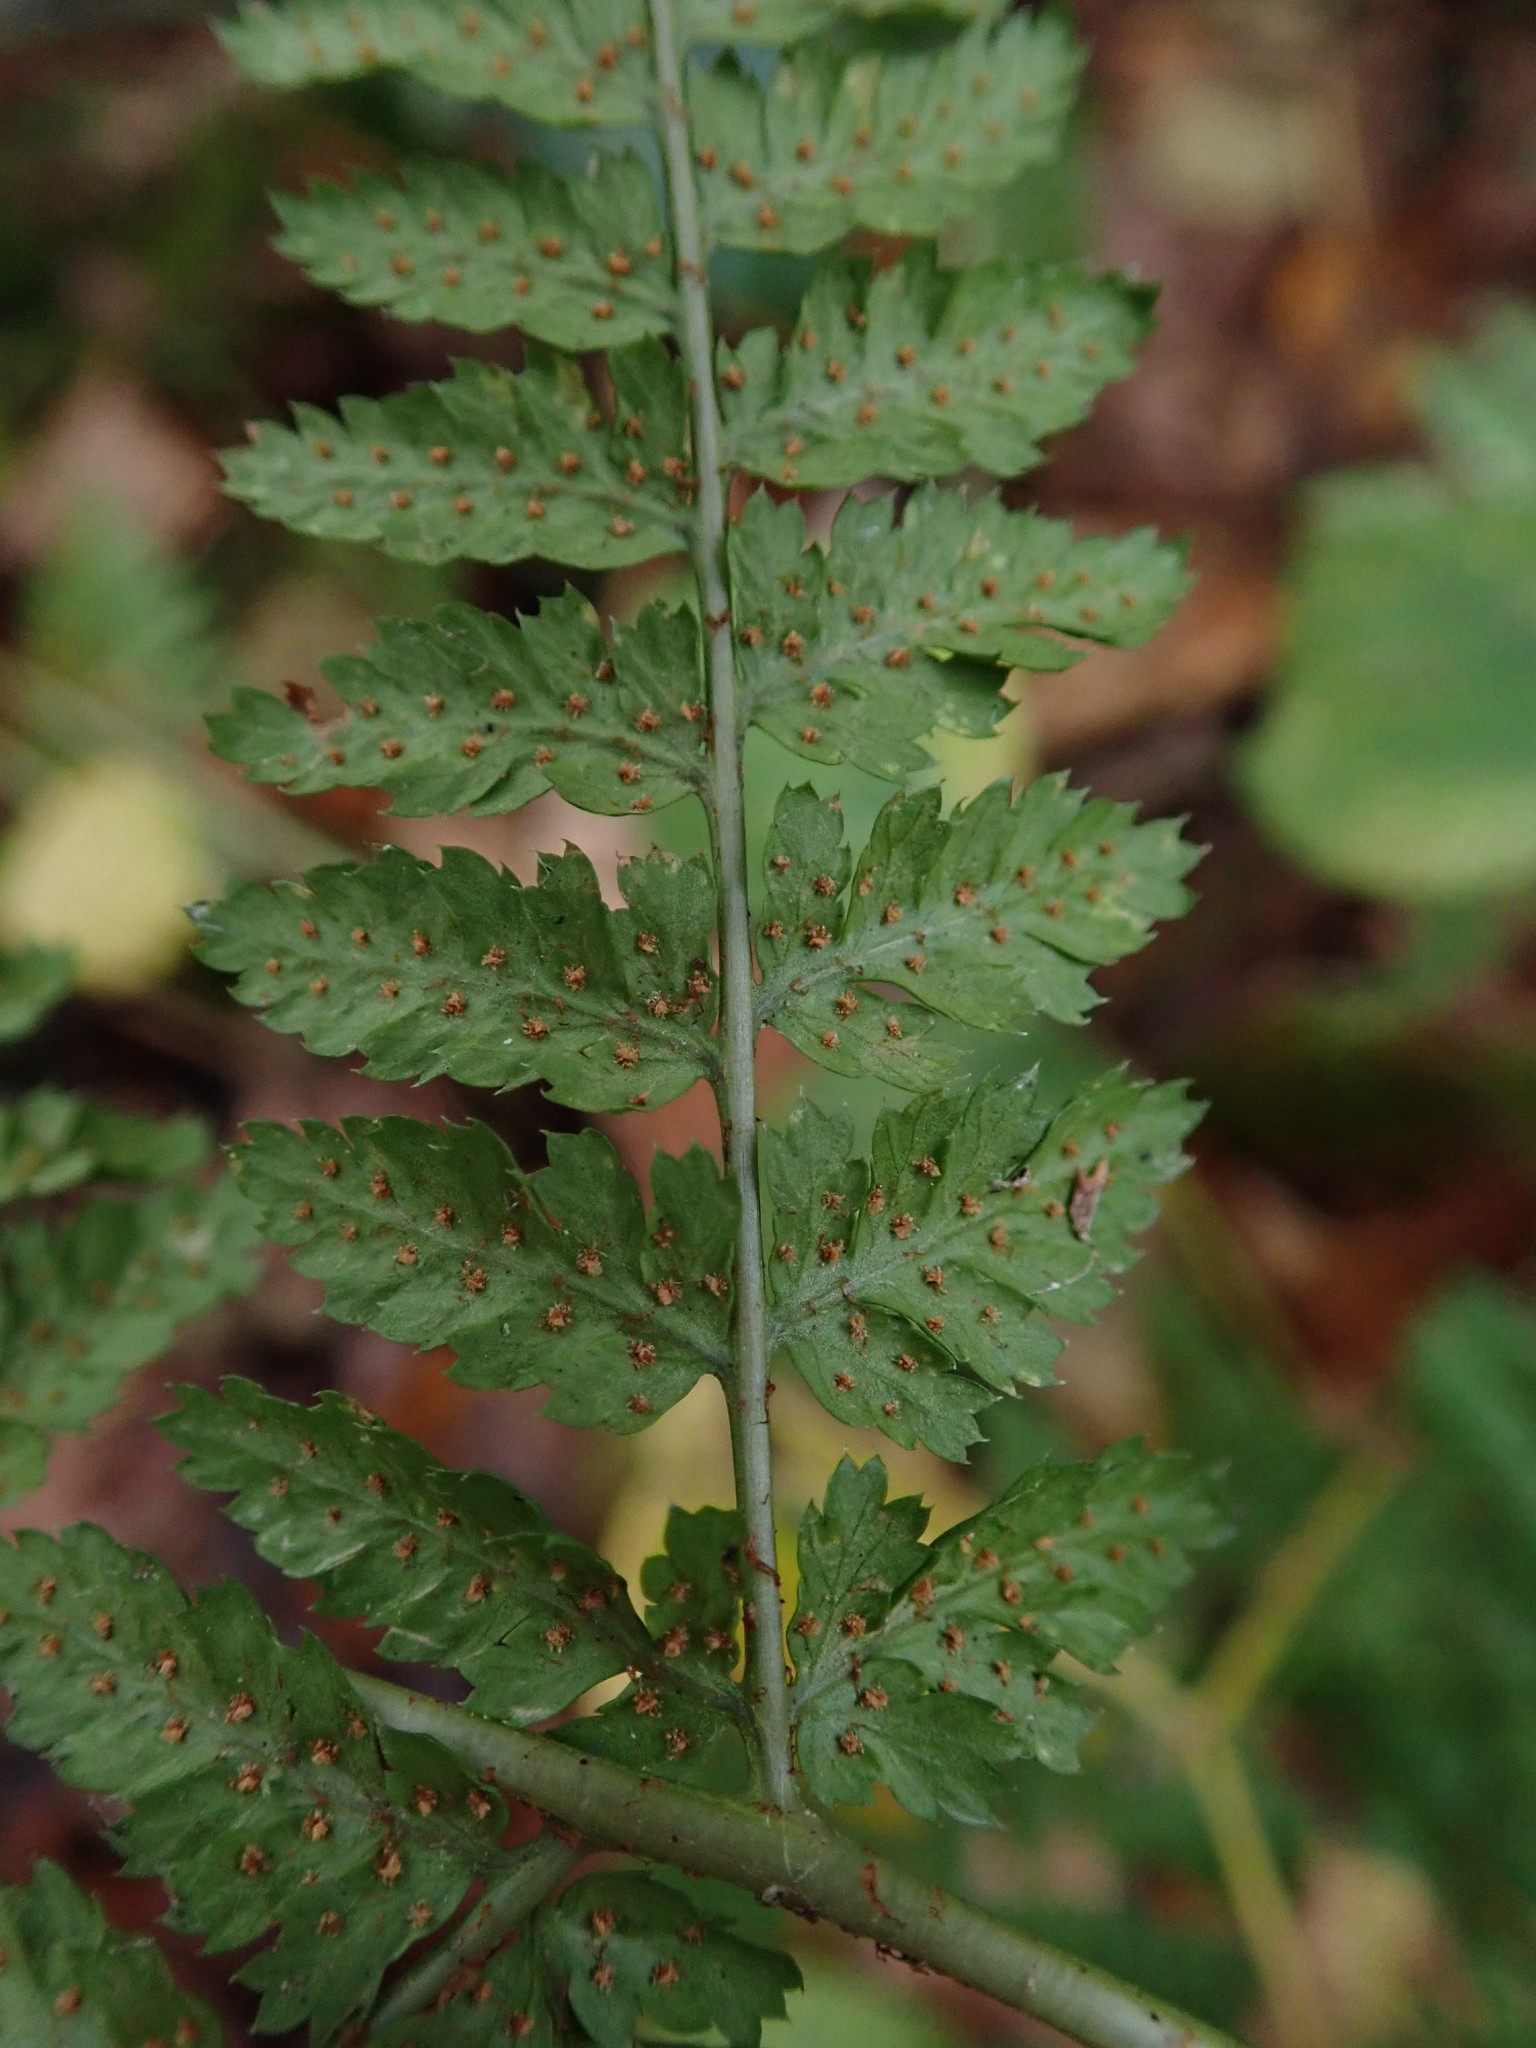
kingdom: Plantae
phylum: Tracheophyta
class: Polypodiopsida
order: Polypodiales
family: Dryopteridaceae
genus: Dryopteris
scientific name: Dryopteris dilatata
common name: Broad buckler-fern
